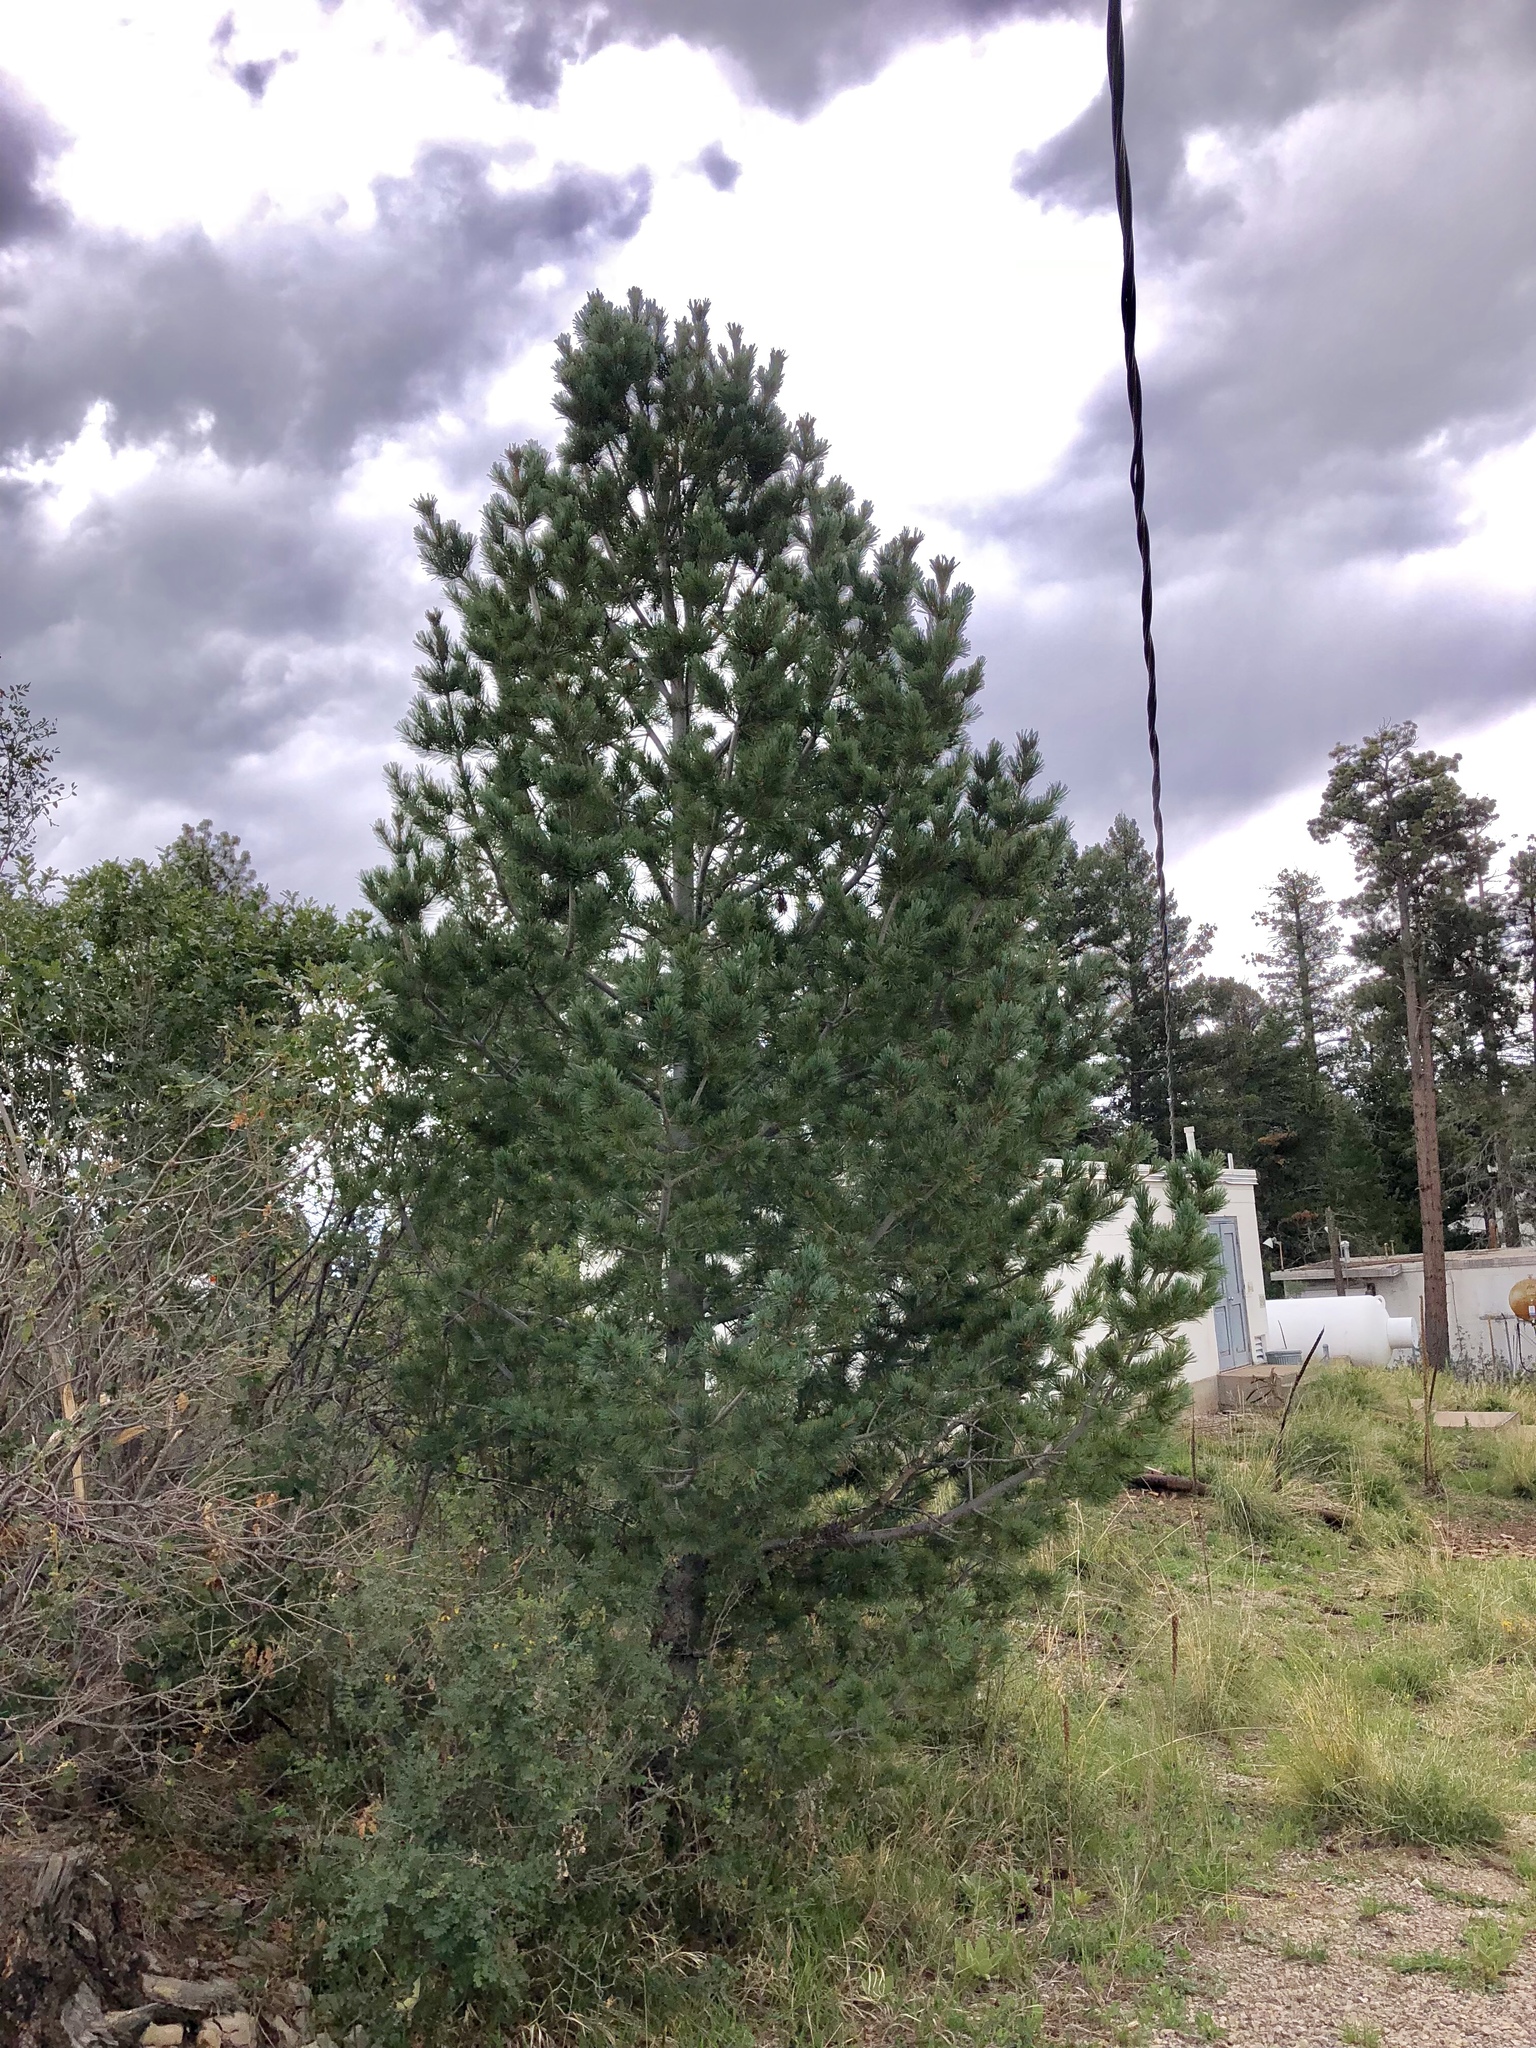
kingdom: Plantae
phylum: Tracheophyta
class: Pinopsida
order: Pinales
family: Pinaceae
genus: Pinus
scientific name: Pinus strobiformis
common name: Southwestern white pine
